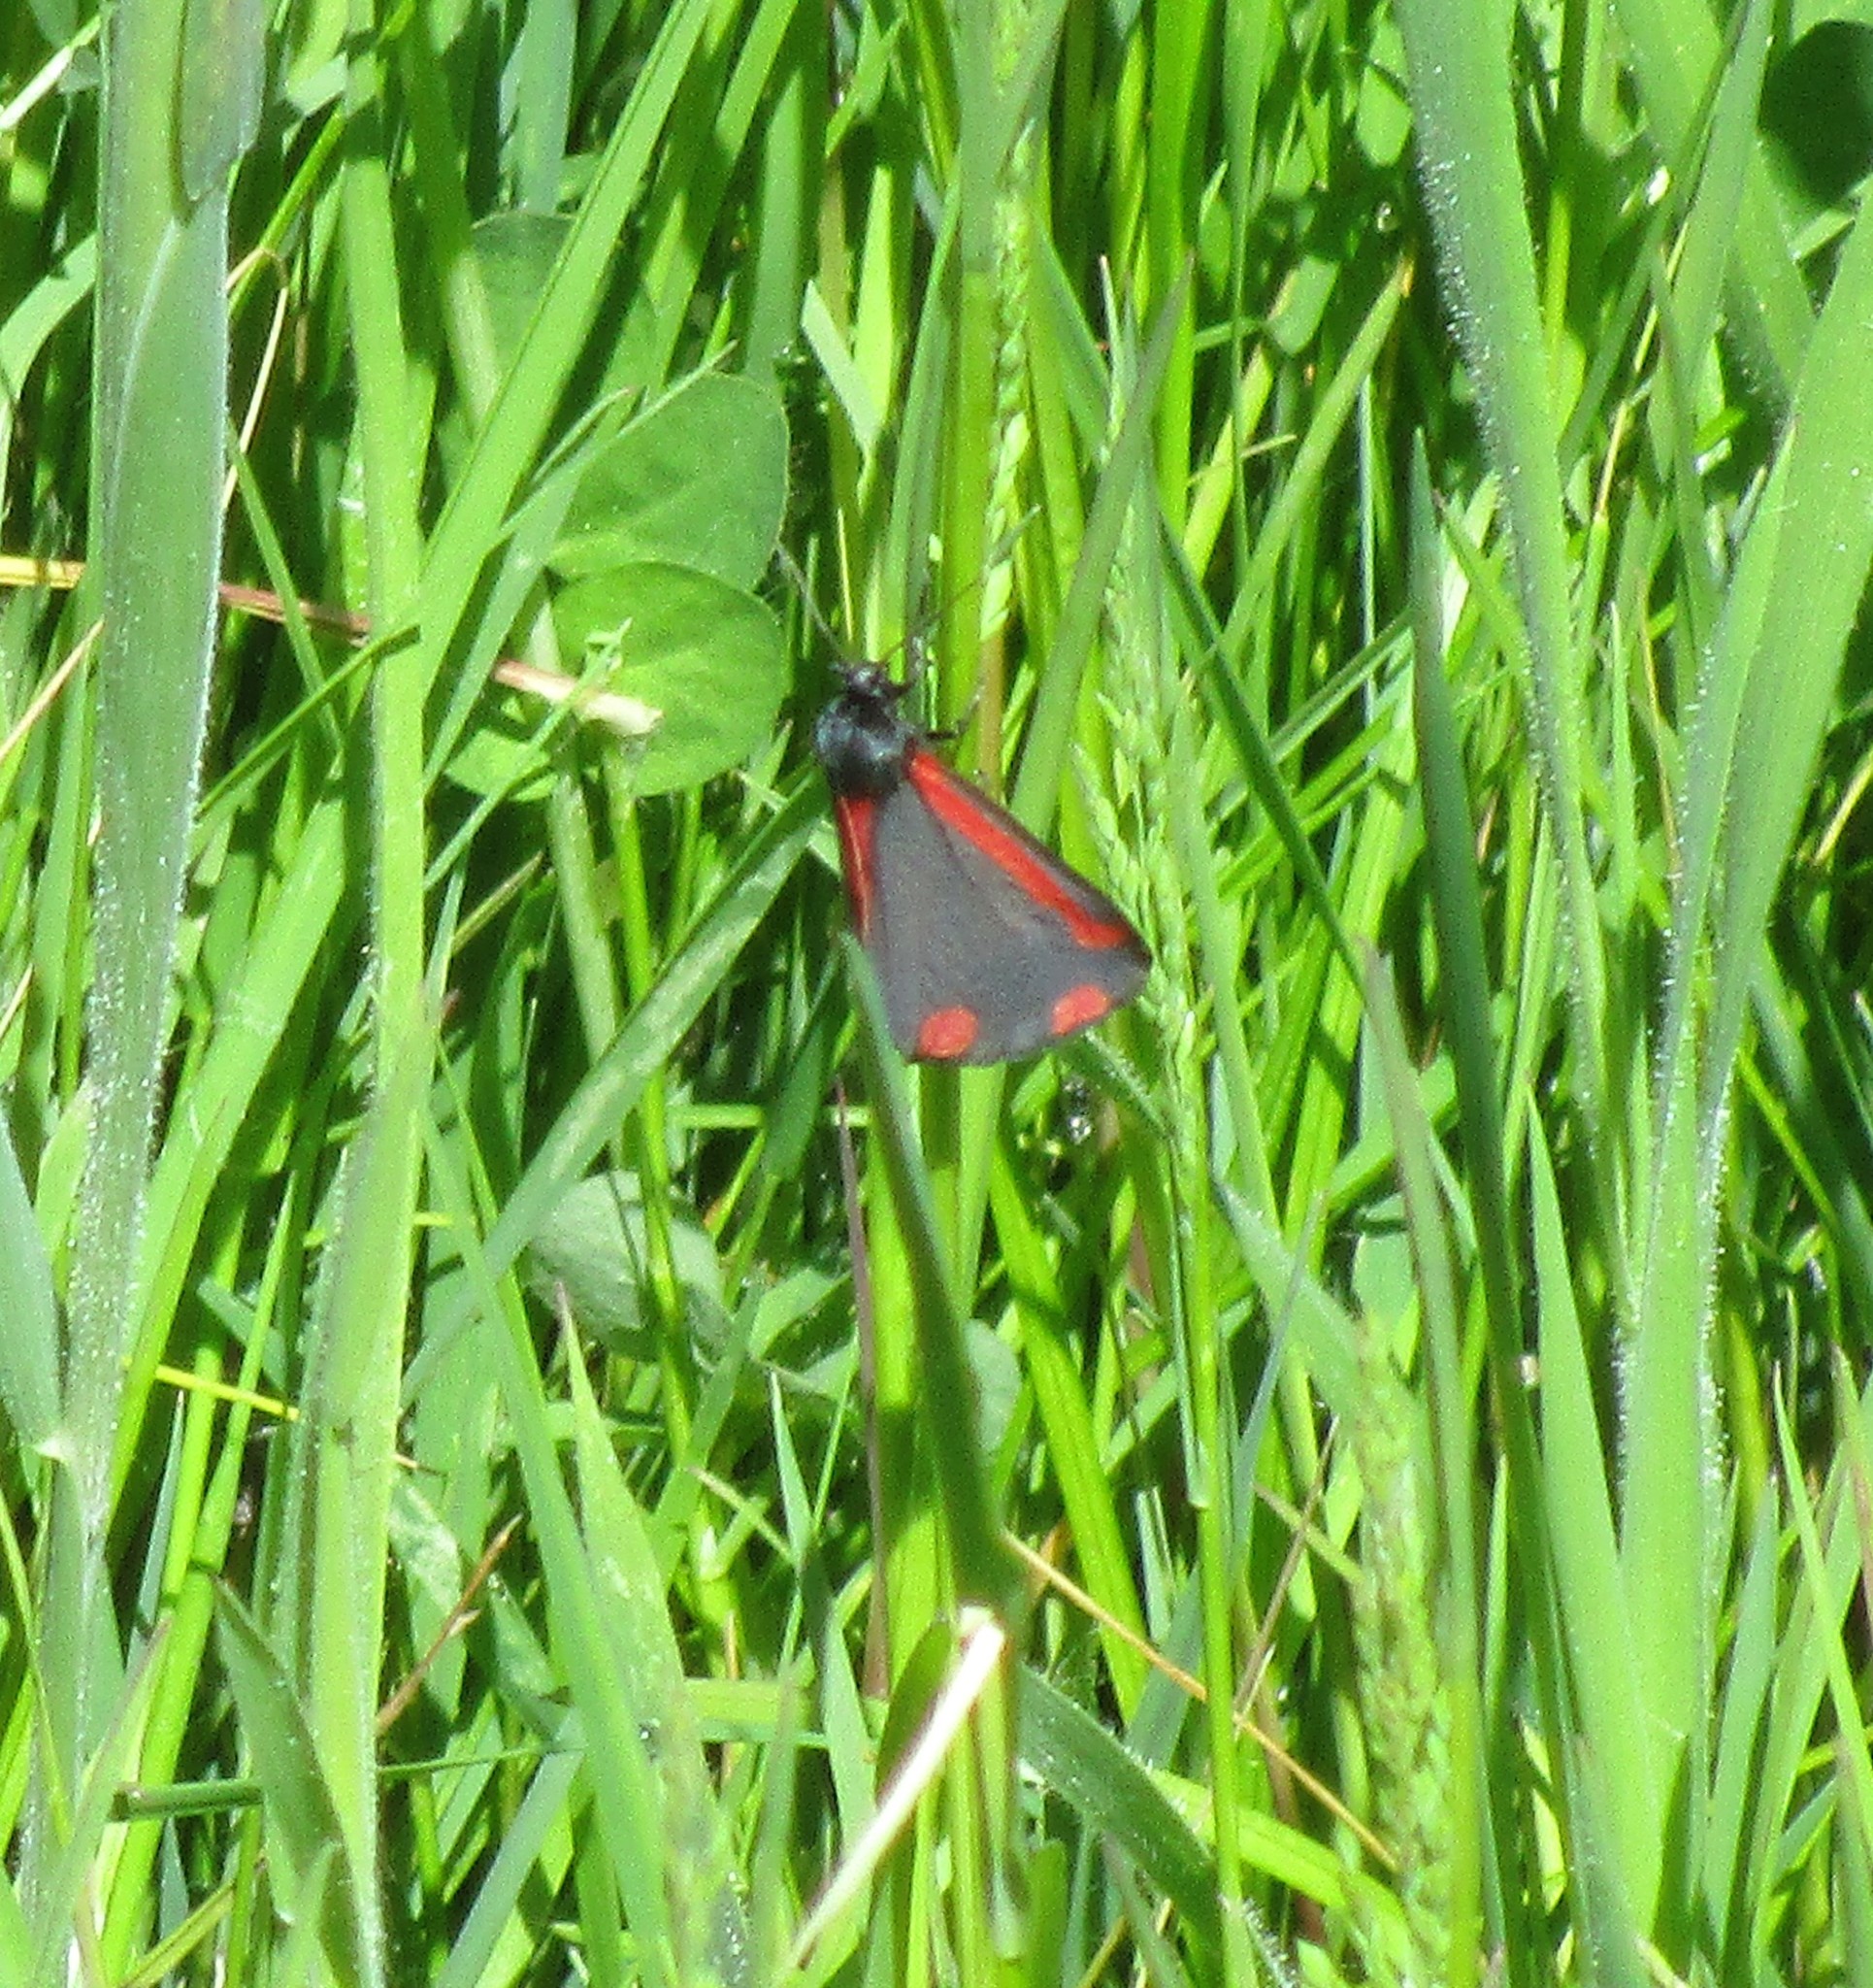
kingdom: Animalia
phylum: Arthropoda
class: Insecta
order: Lepidoptera
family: Erebidae
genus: Tyria
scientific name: Tyria jacobaeae
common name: Cinnabar
